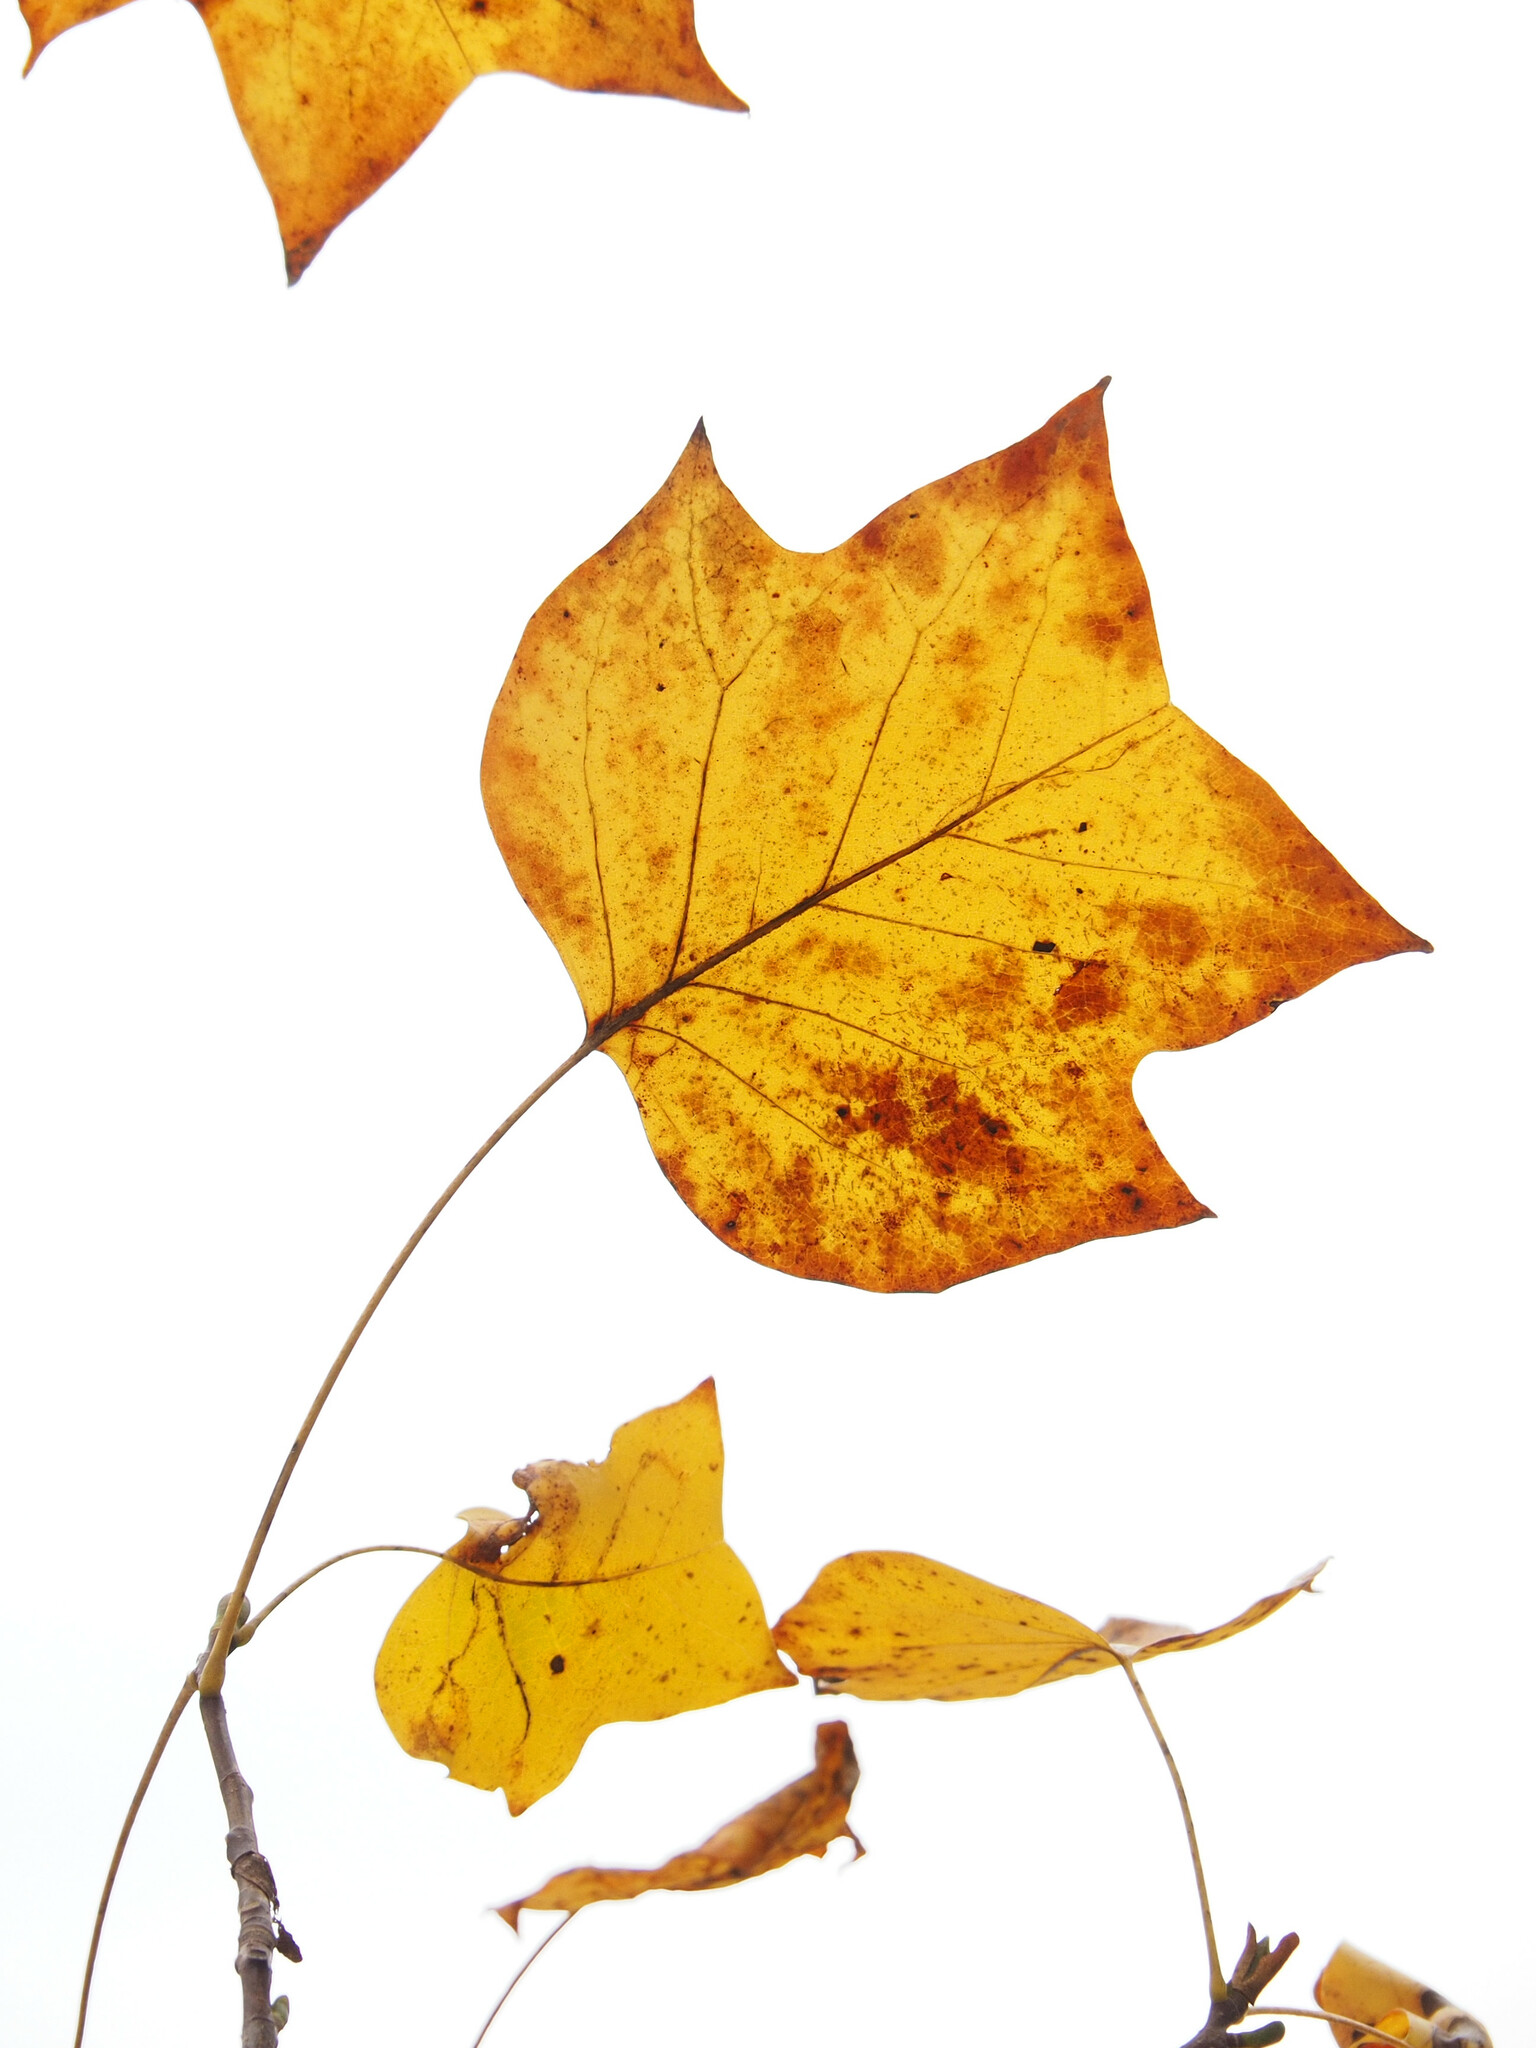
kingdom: Plantae
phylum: Tracheophyta
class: Magnoliopsida
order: Magnoliales
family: Magnoliaceae
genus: Liriodendron
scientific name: Liriodendron tulipifera
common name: Tulip tree
